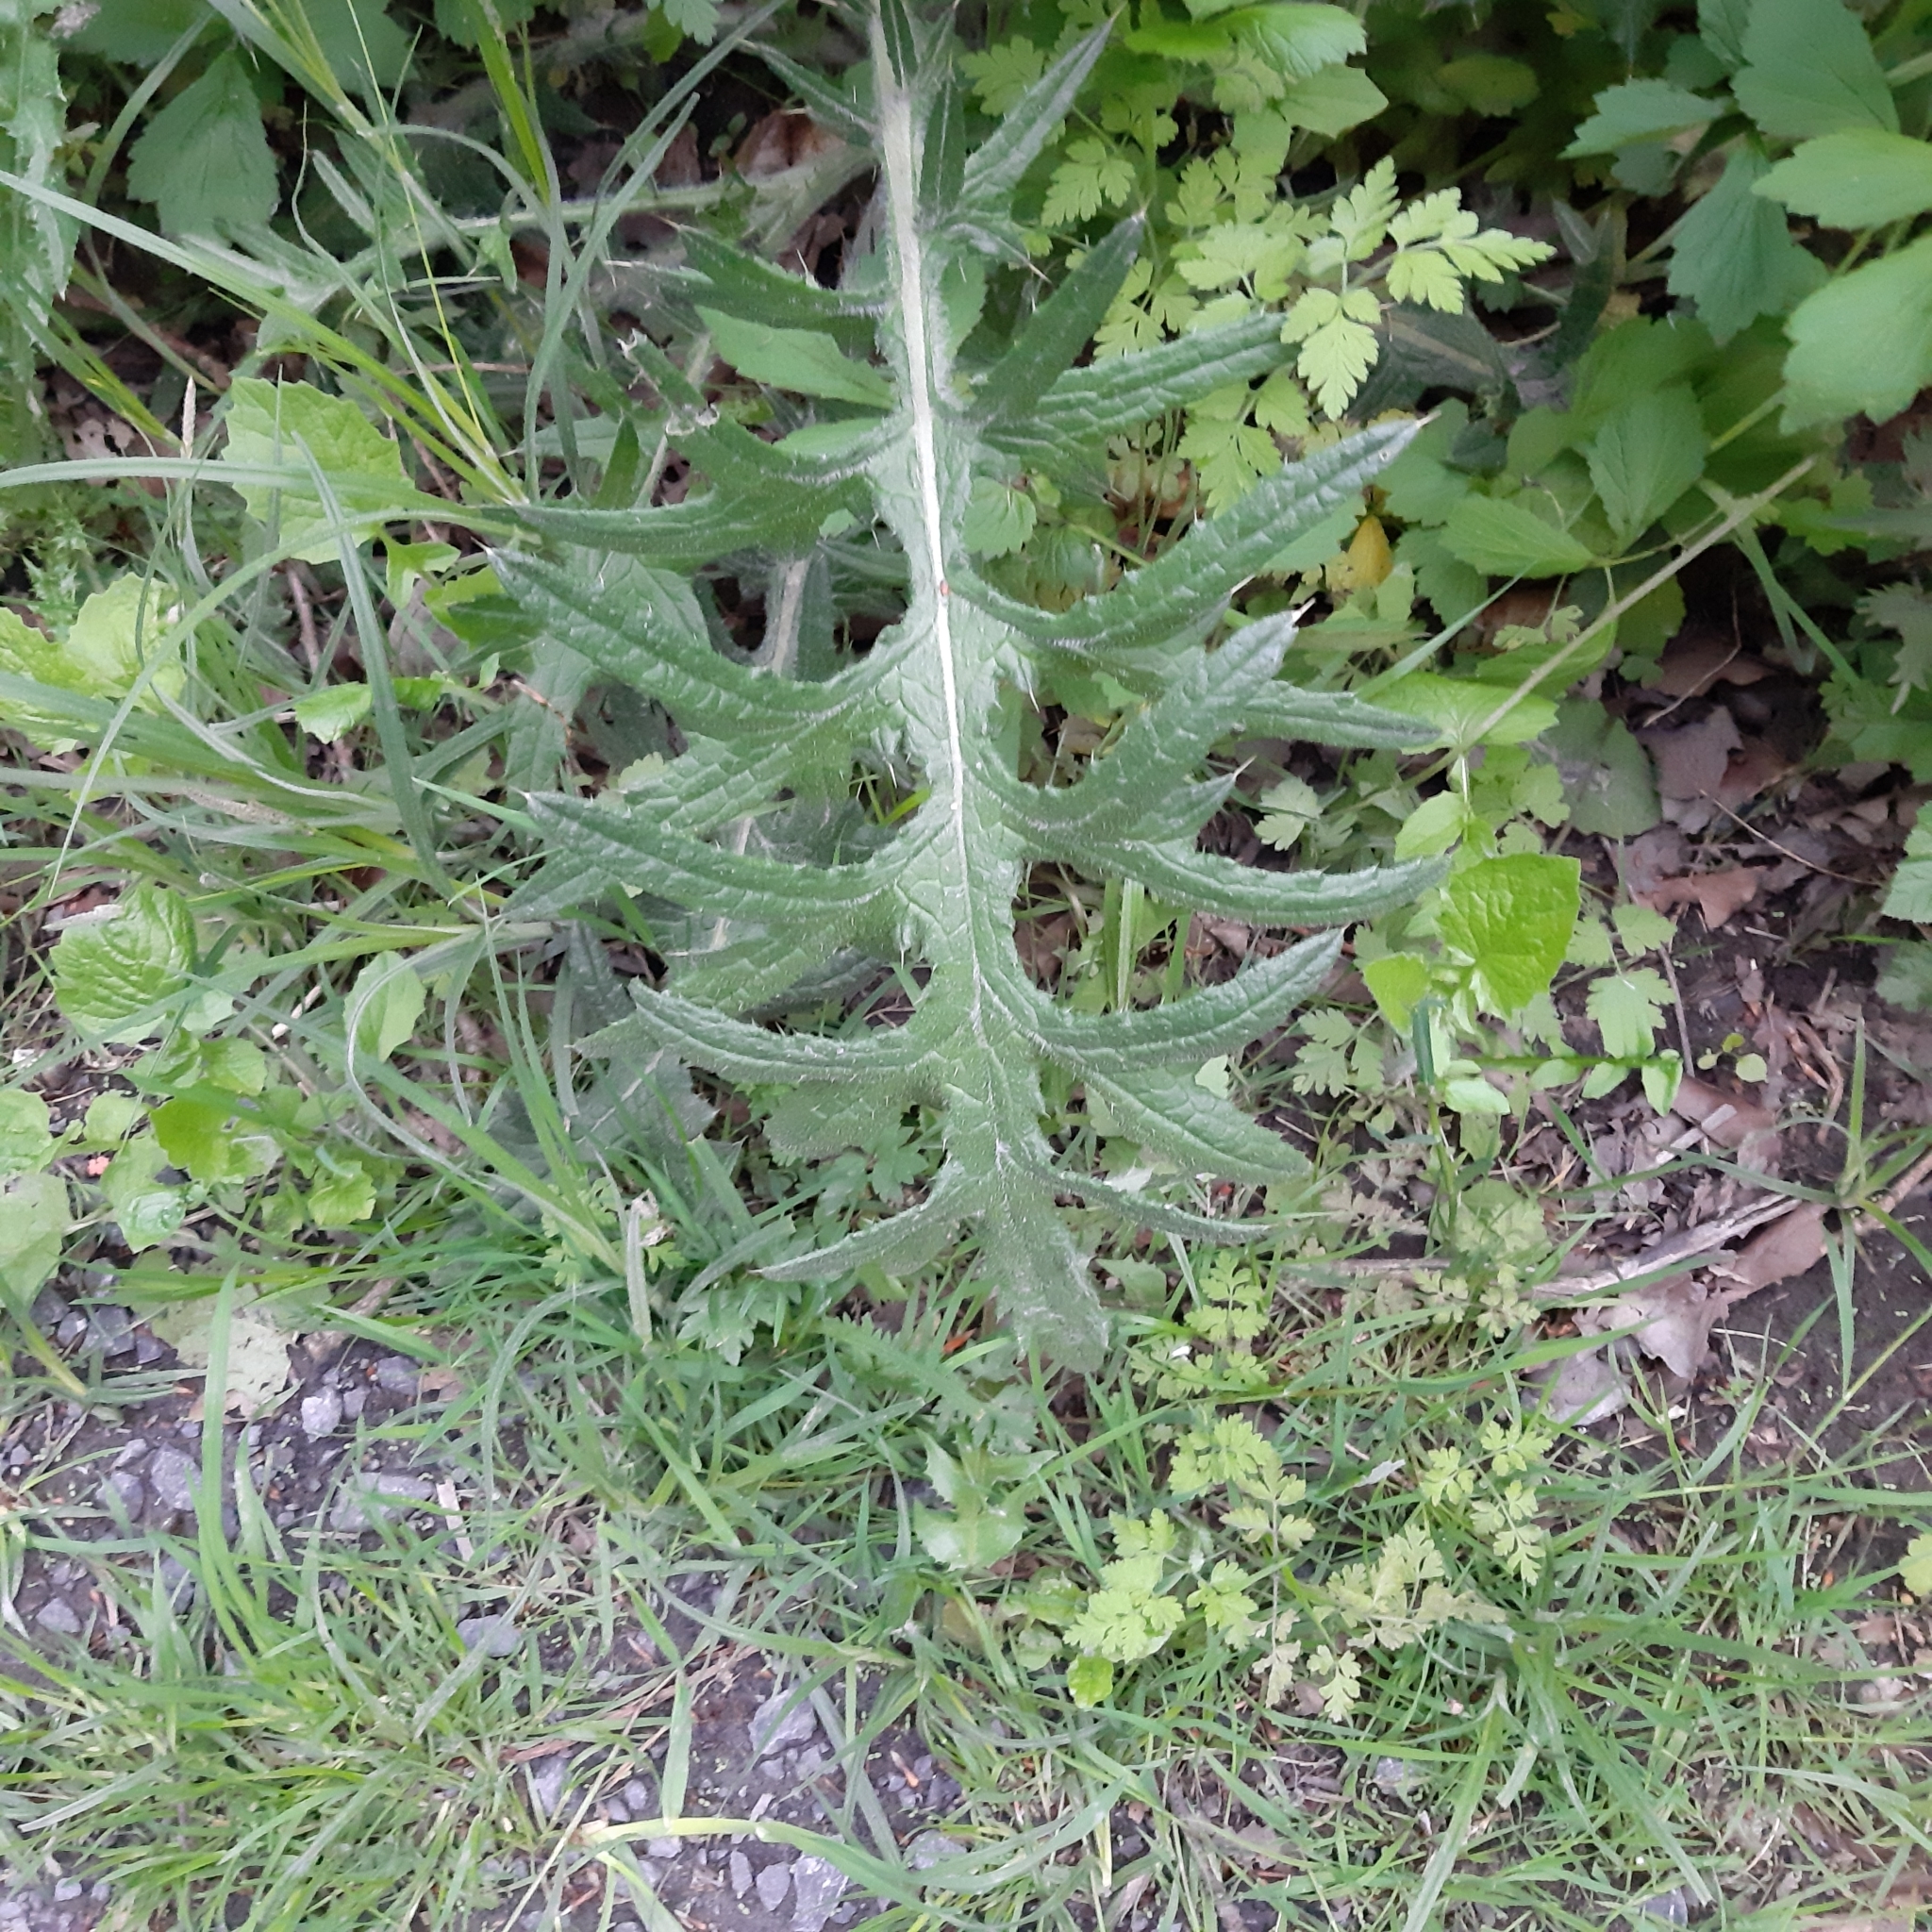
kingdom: Plantae
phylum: Tracheophyta
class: Magnoliopsida
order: Asterales
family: Asteraceae
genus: Cirsium
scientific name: Cirsium vulgare
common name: Bull thistle
